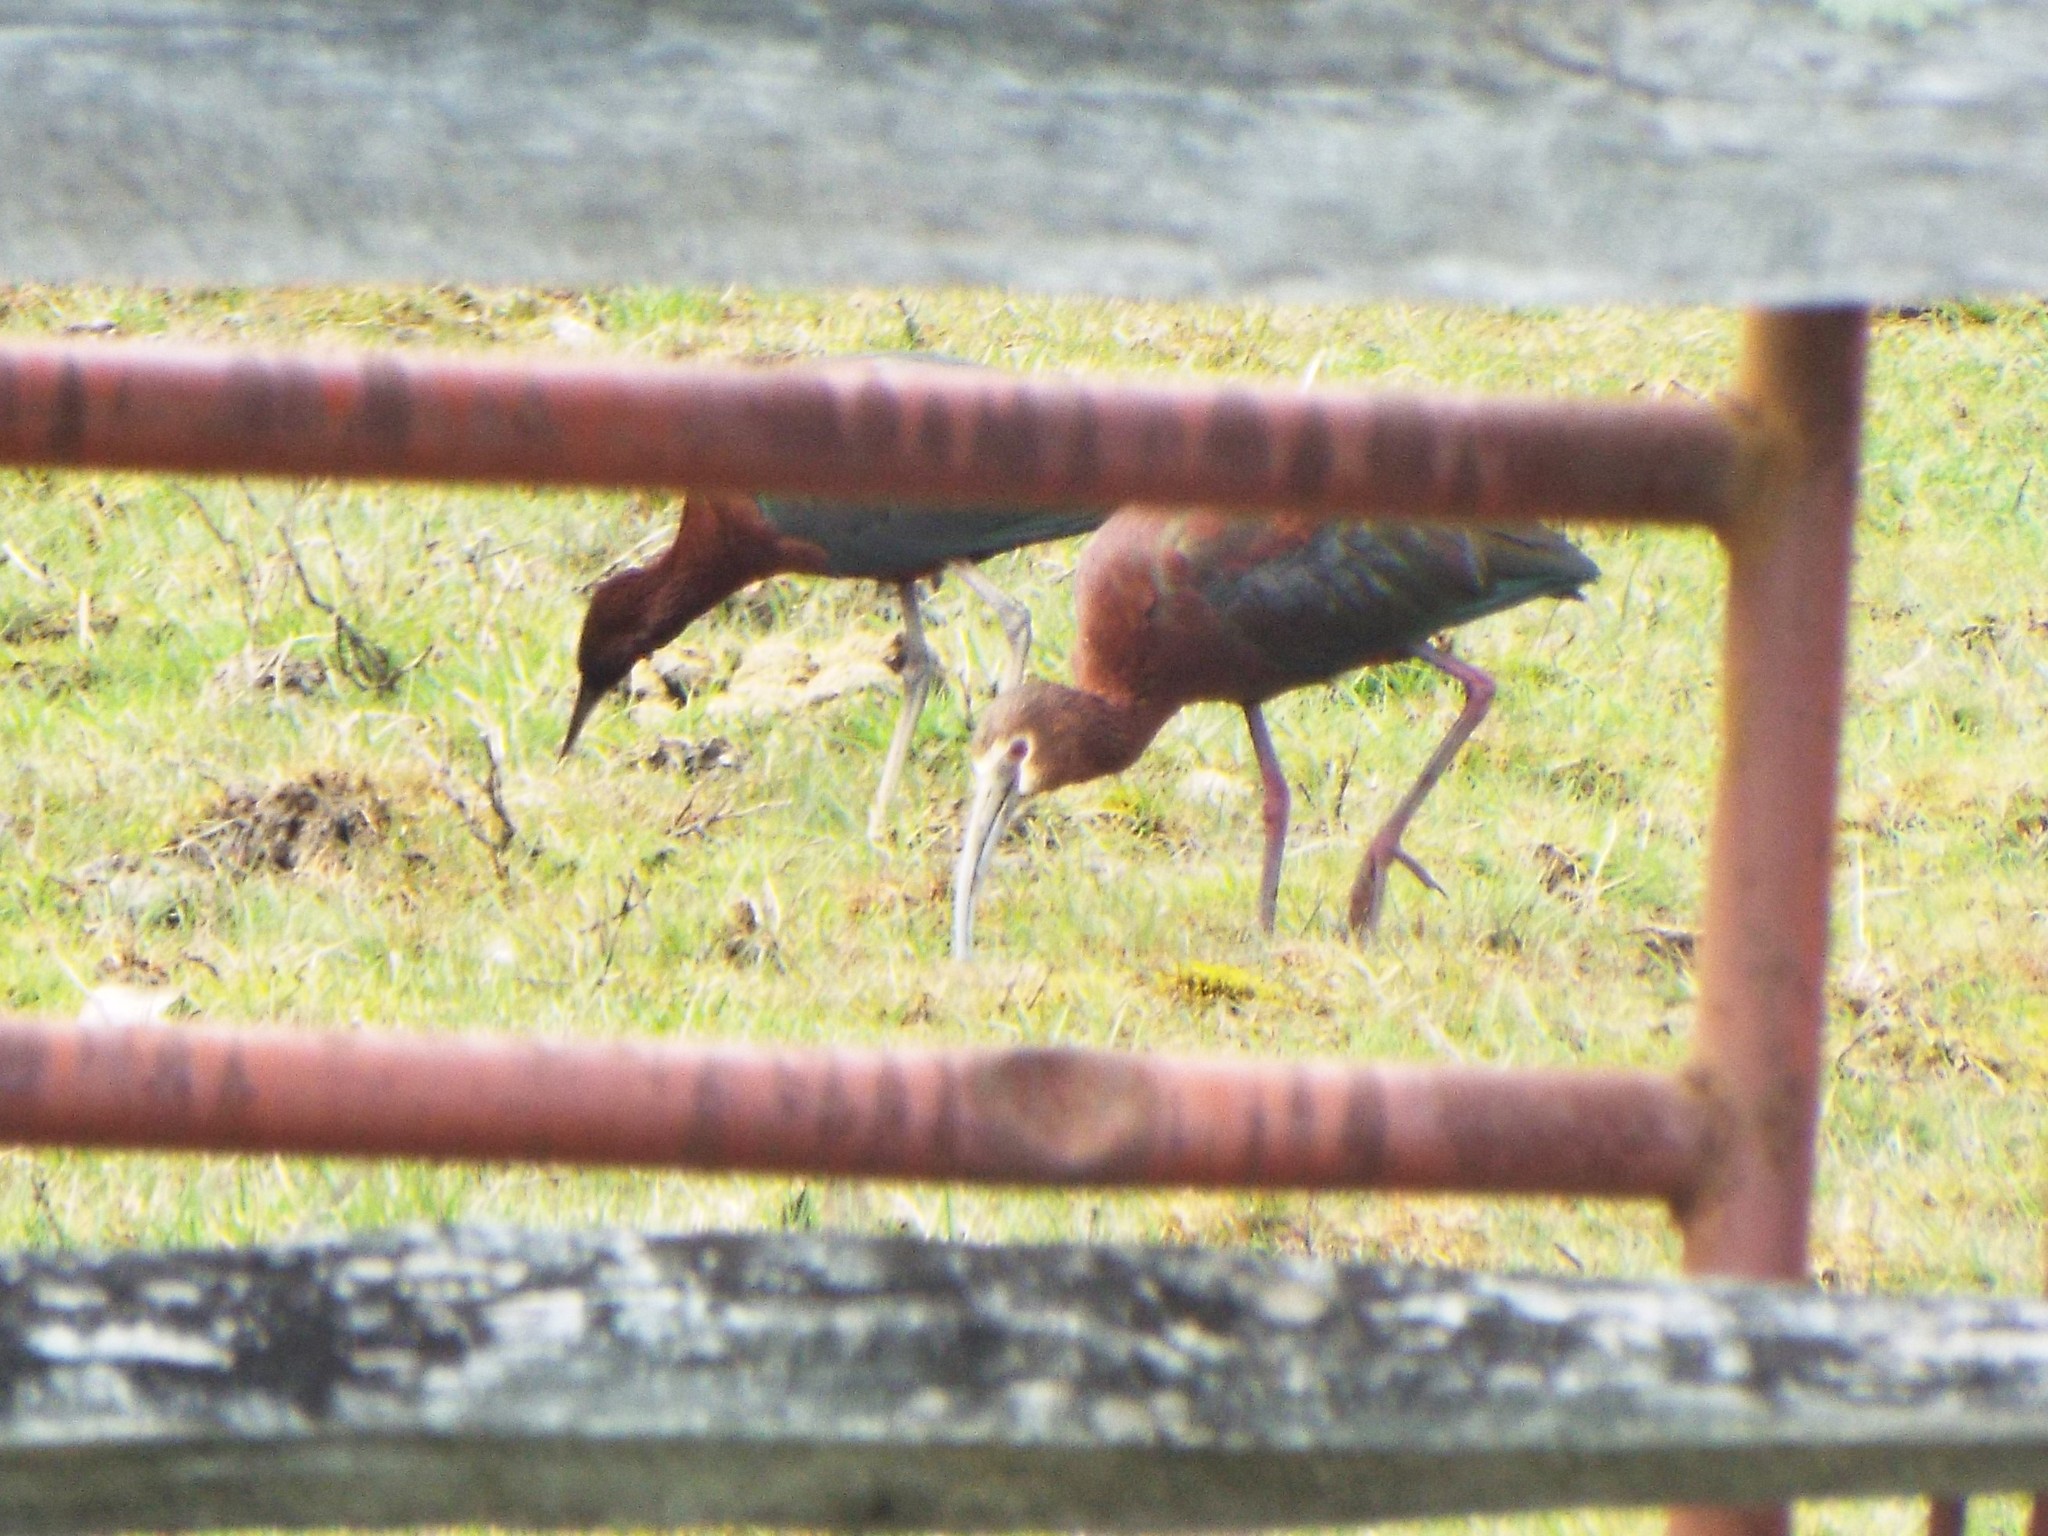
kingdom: Animalia
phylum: Chordata
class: Aves
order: Pelecaniformes
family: Threskiornithidae
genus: Plegadis
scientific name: Plegadis chihi
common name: White-faced ibis
